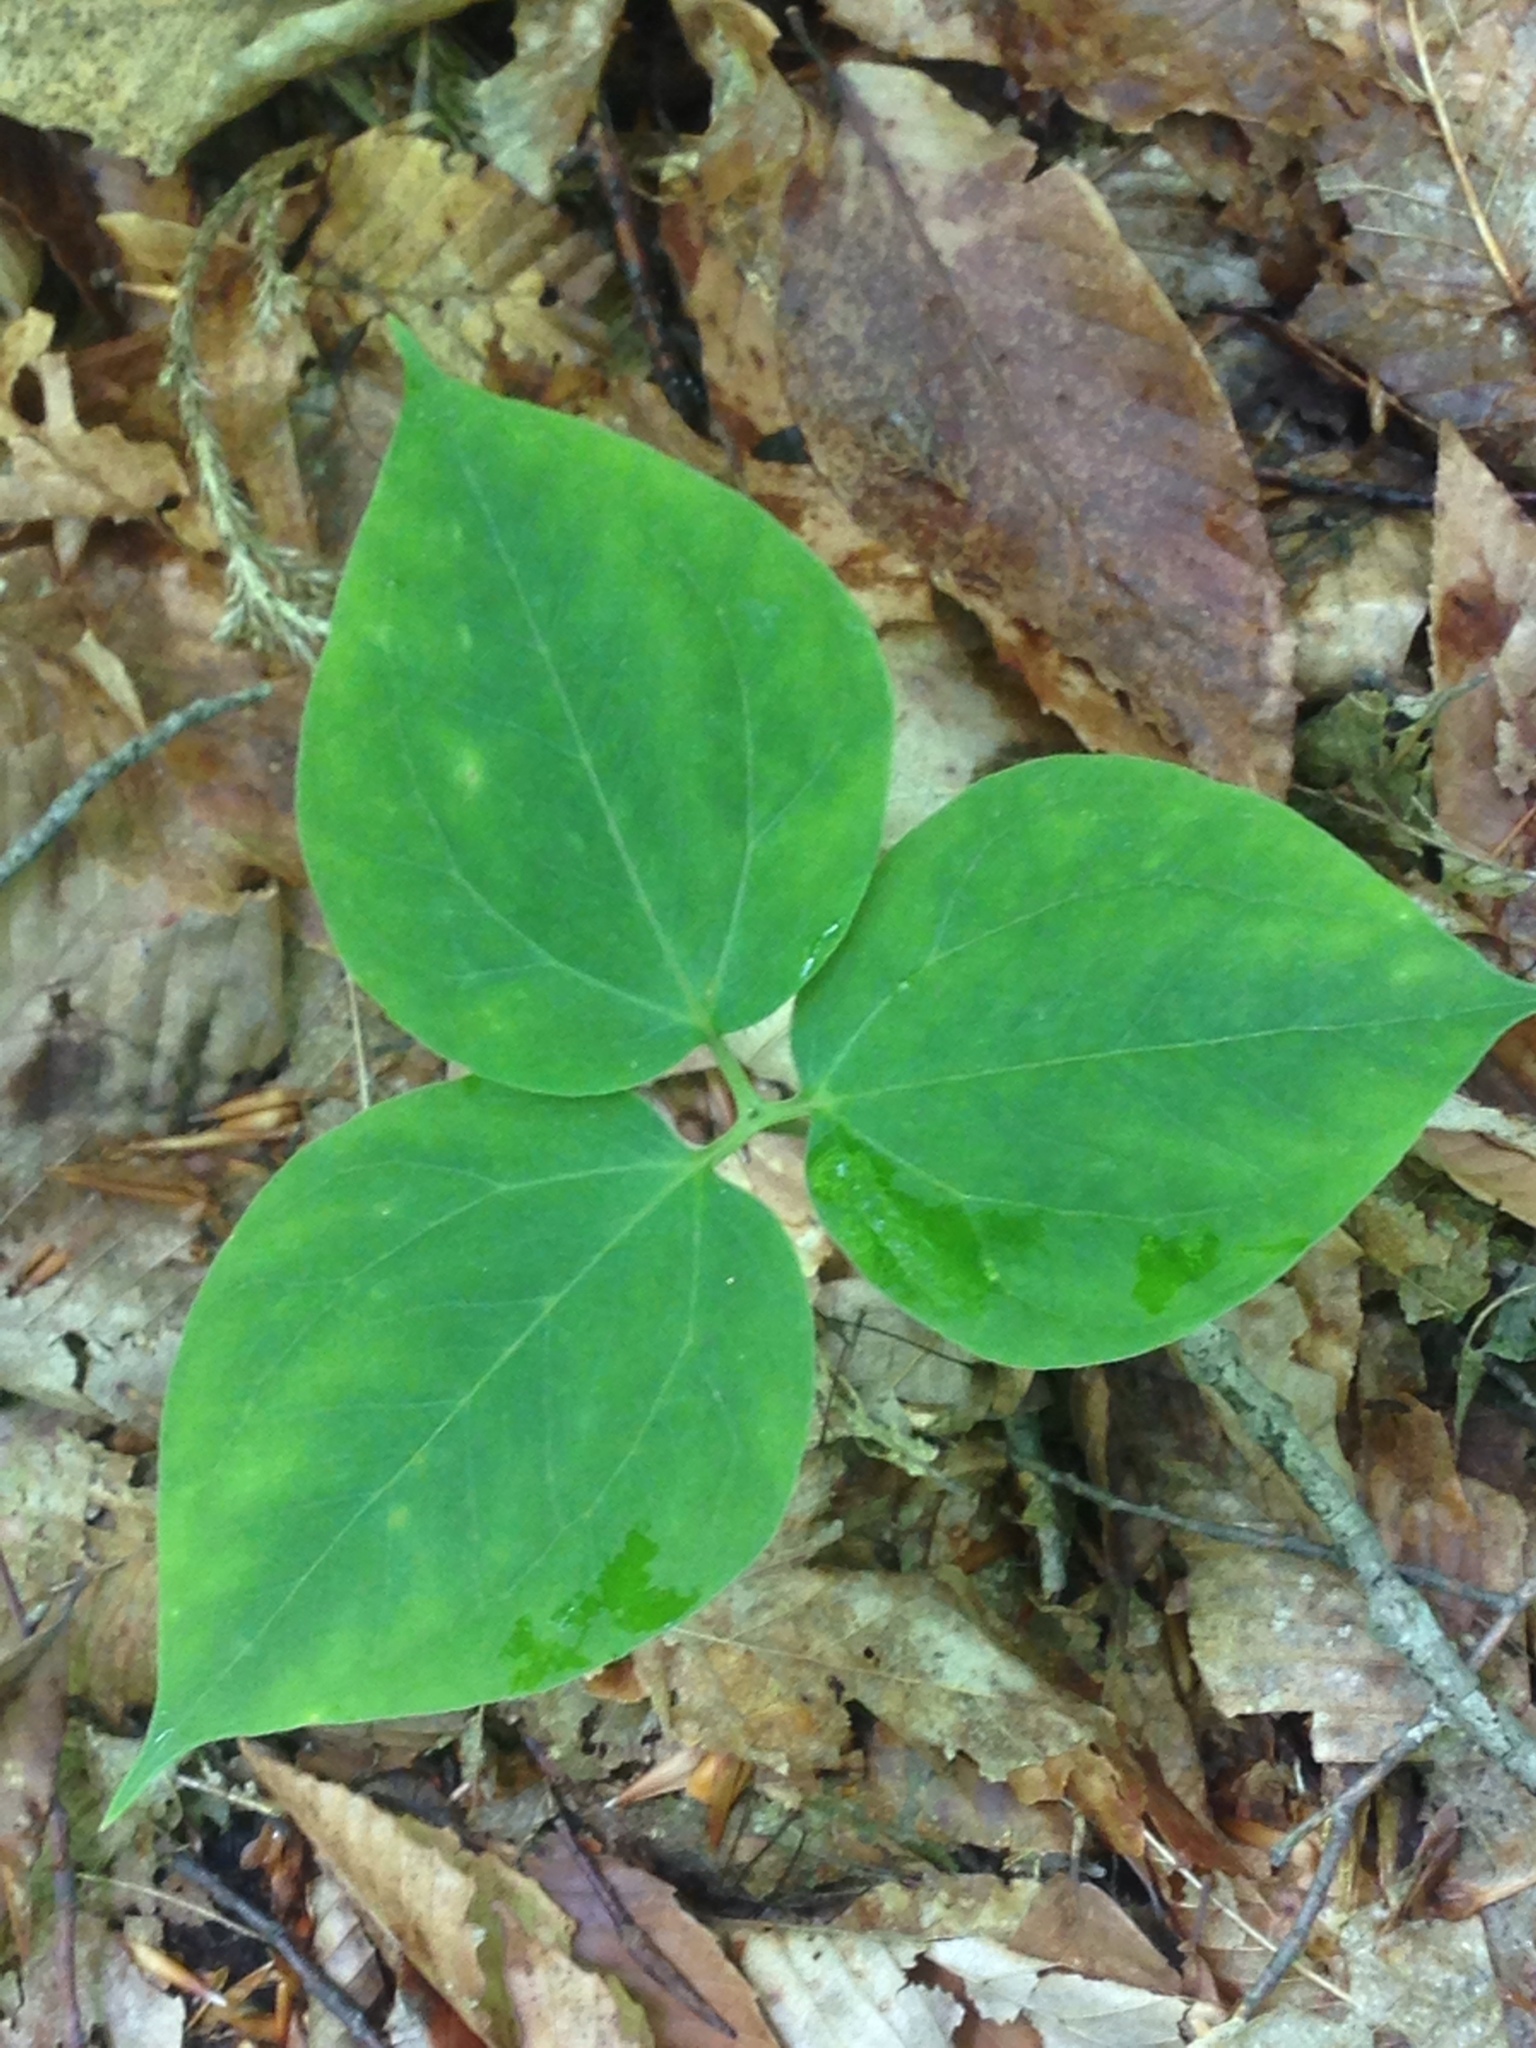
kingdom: Plantae
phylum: Tracheophyta
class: Liliopsida
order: Liliales
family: Melanthiaceae
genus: Trillium
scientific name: Trillium undulatum
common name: Paint trillium
